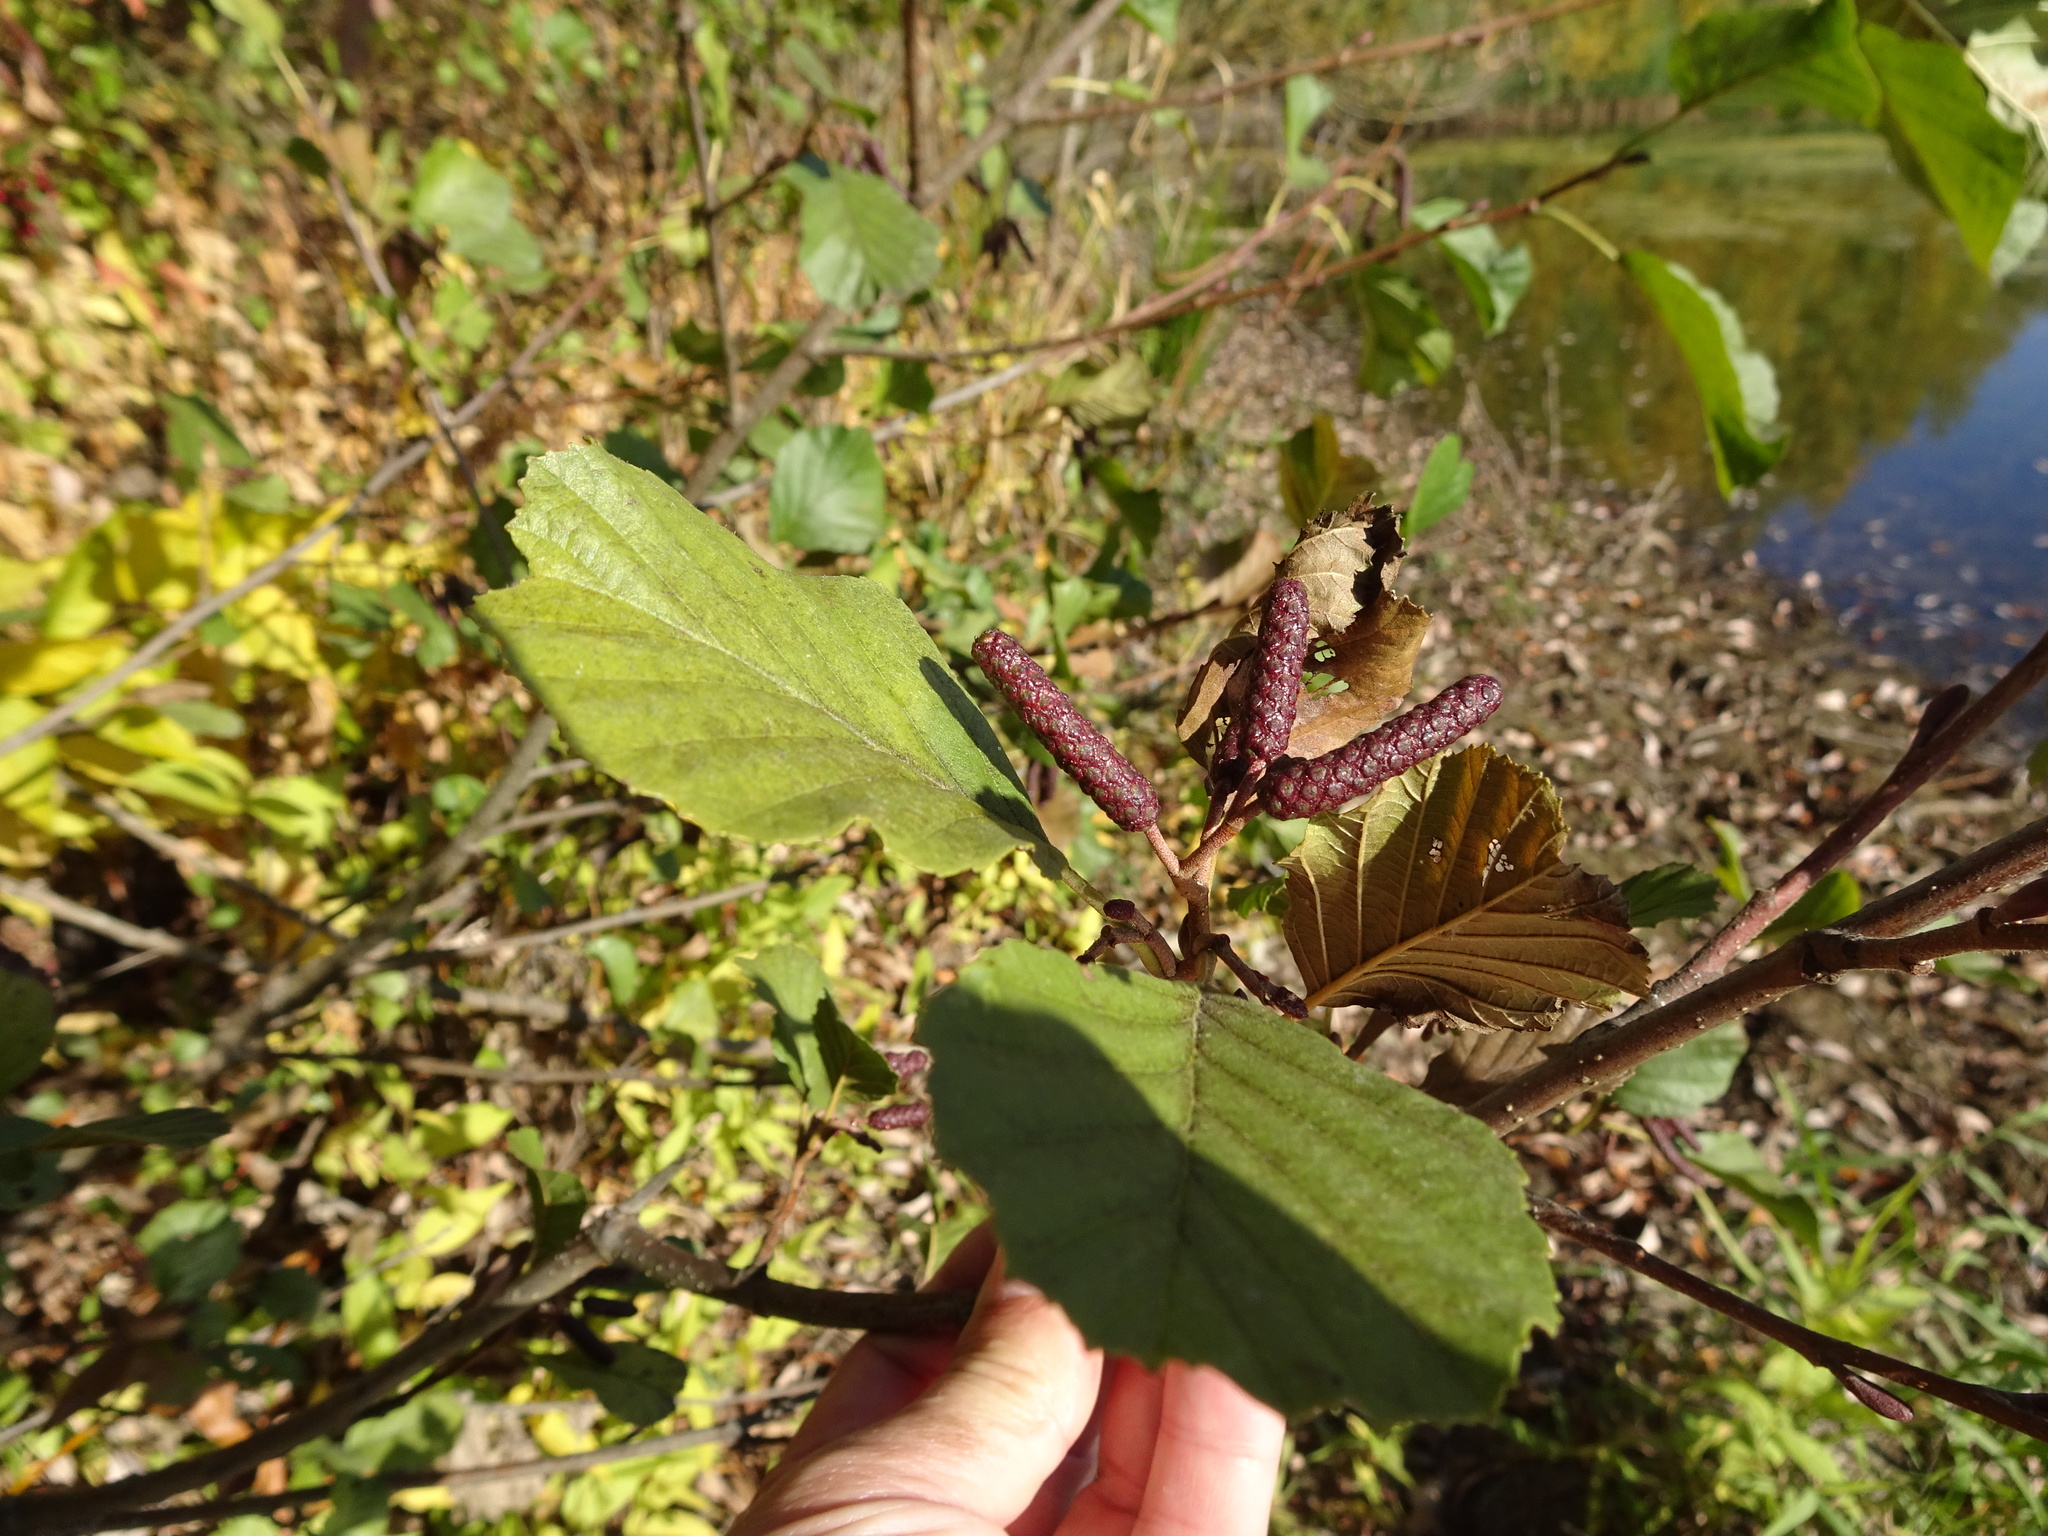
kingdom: Plantae
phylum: Tracheophyta
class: Magnoliopsida
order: Fagales
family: Betulaceae
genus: Alnus
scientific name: Alnus glutinosa
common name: Black alder
